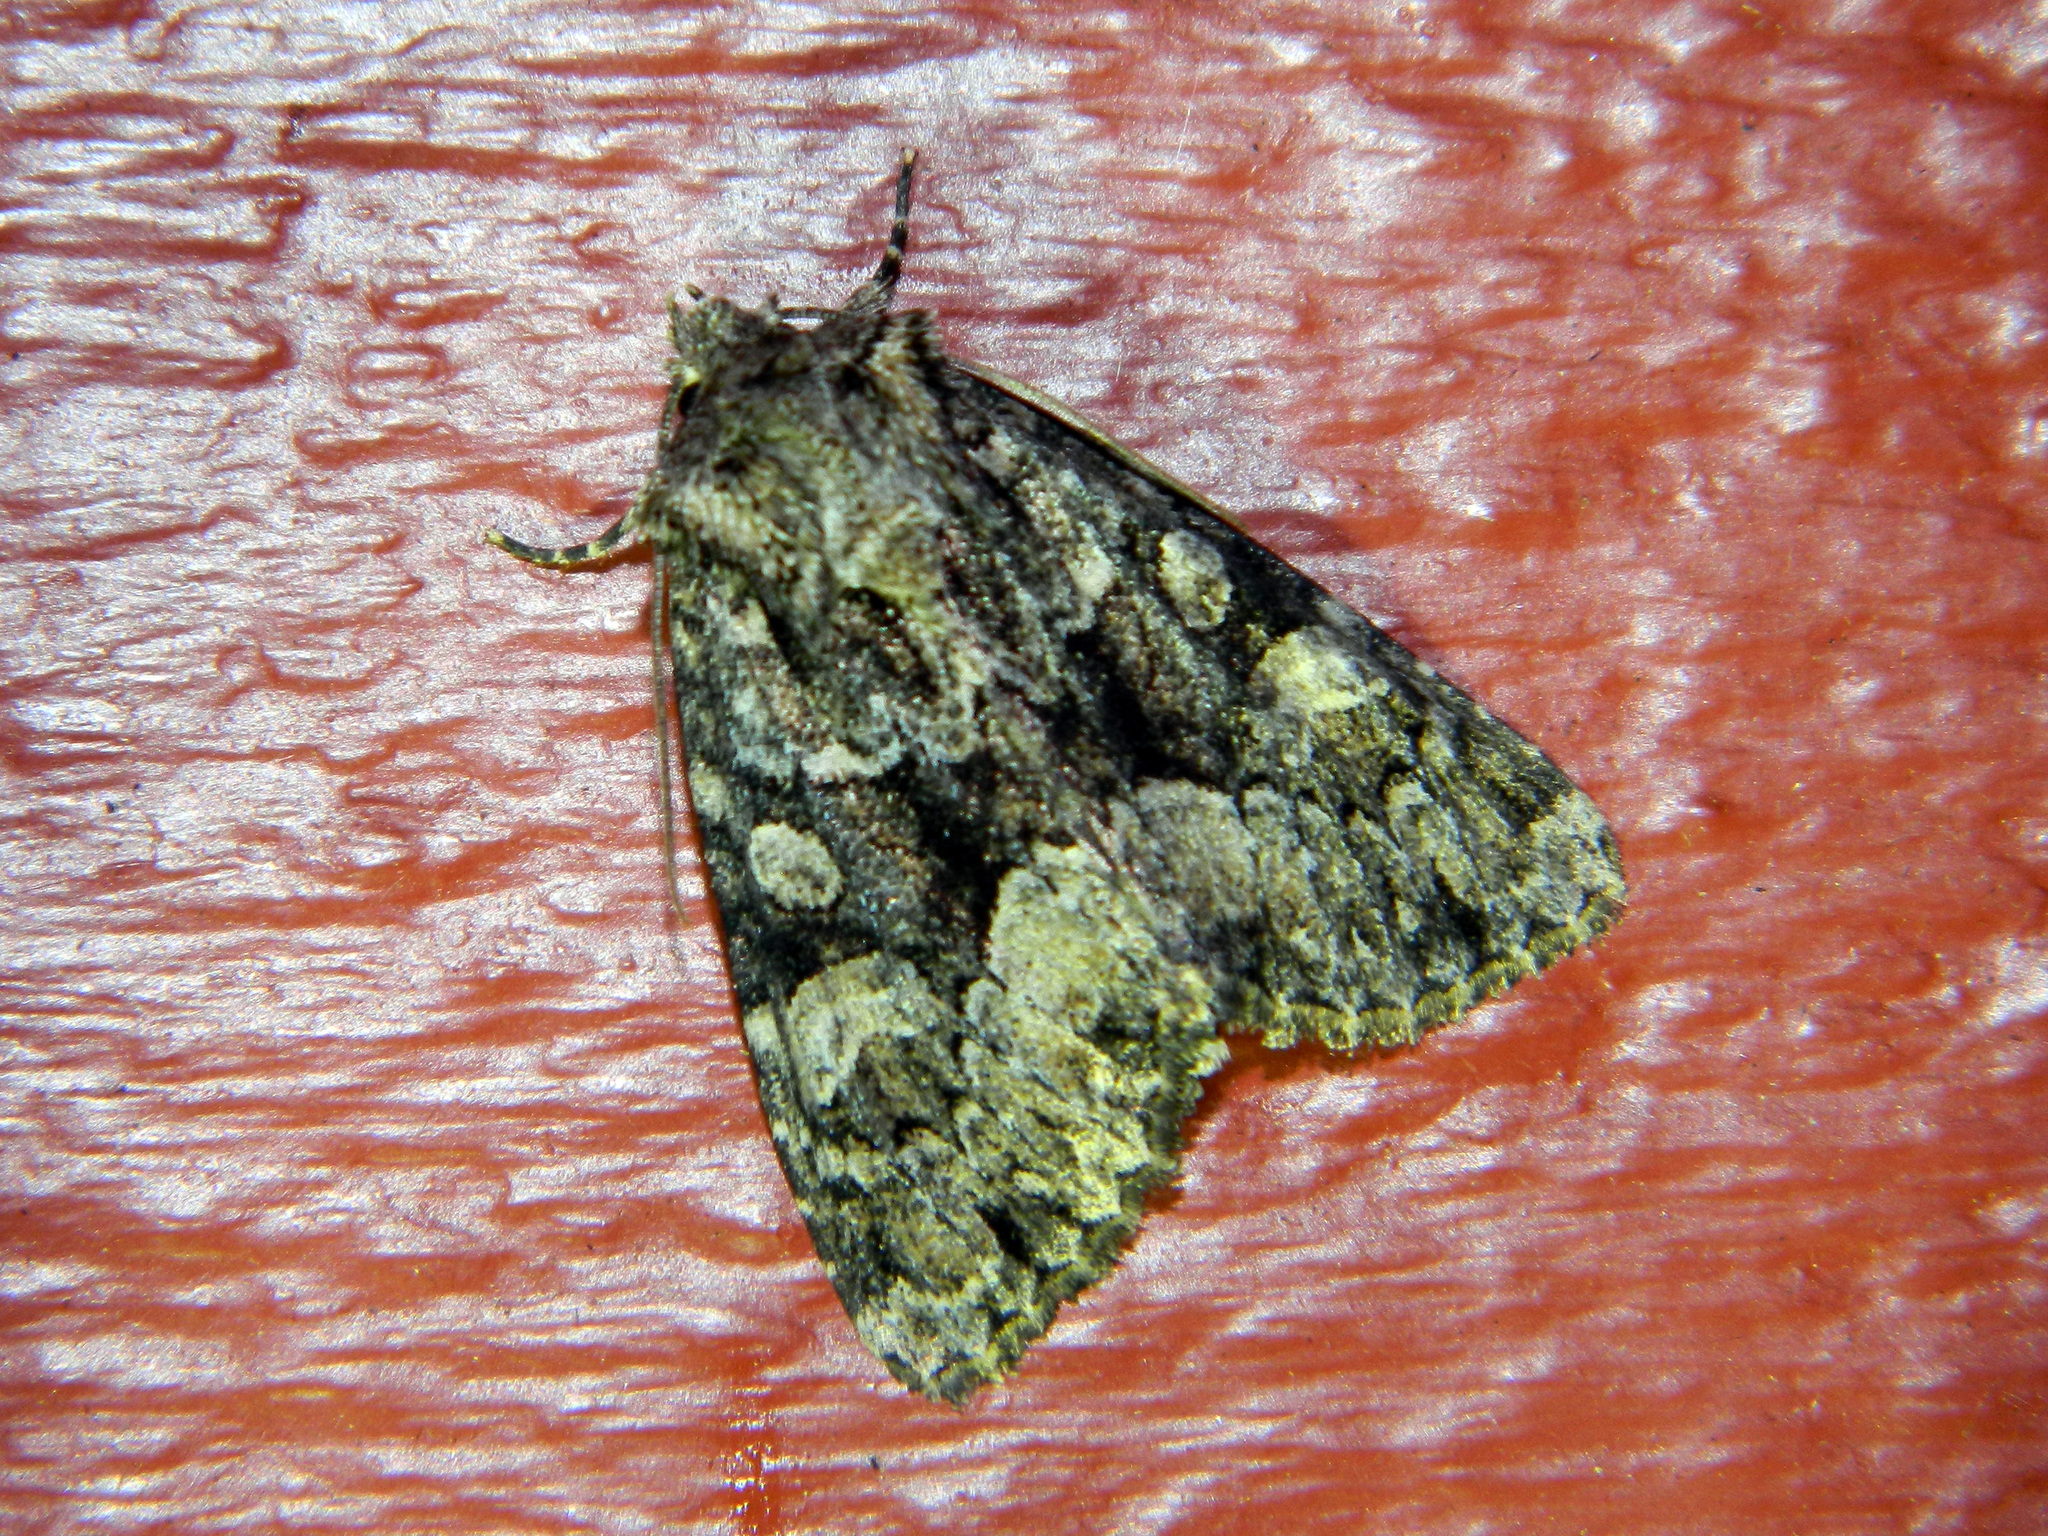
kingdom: Animalia
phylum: Arthropoda
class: Insecta
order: Lepidoptera
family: Noctuidae
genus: Platypolia
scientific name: Platypolia mactata
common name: Adorable brocade moth
